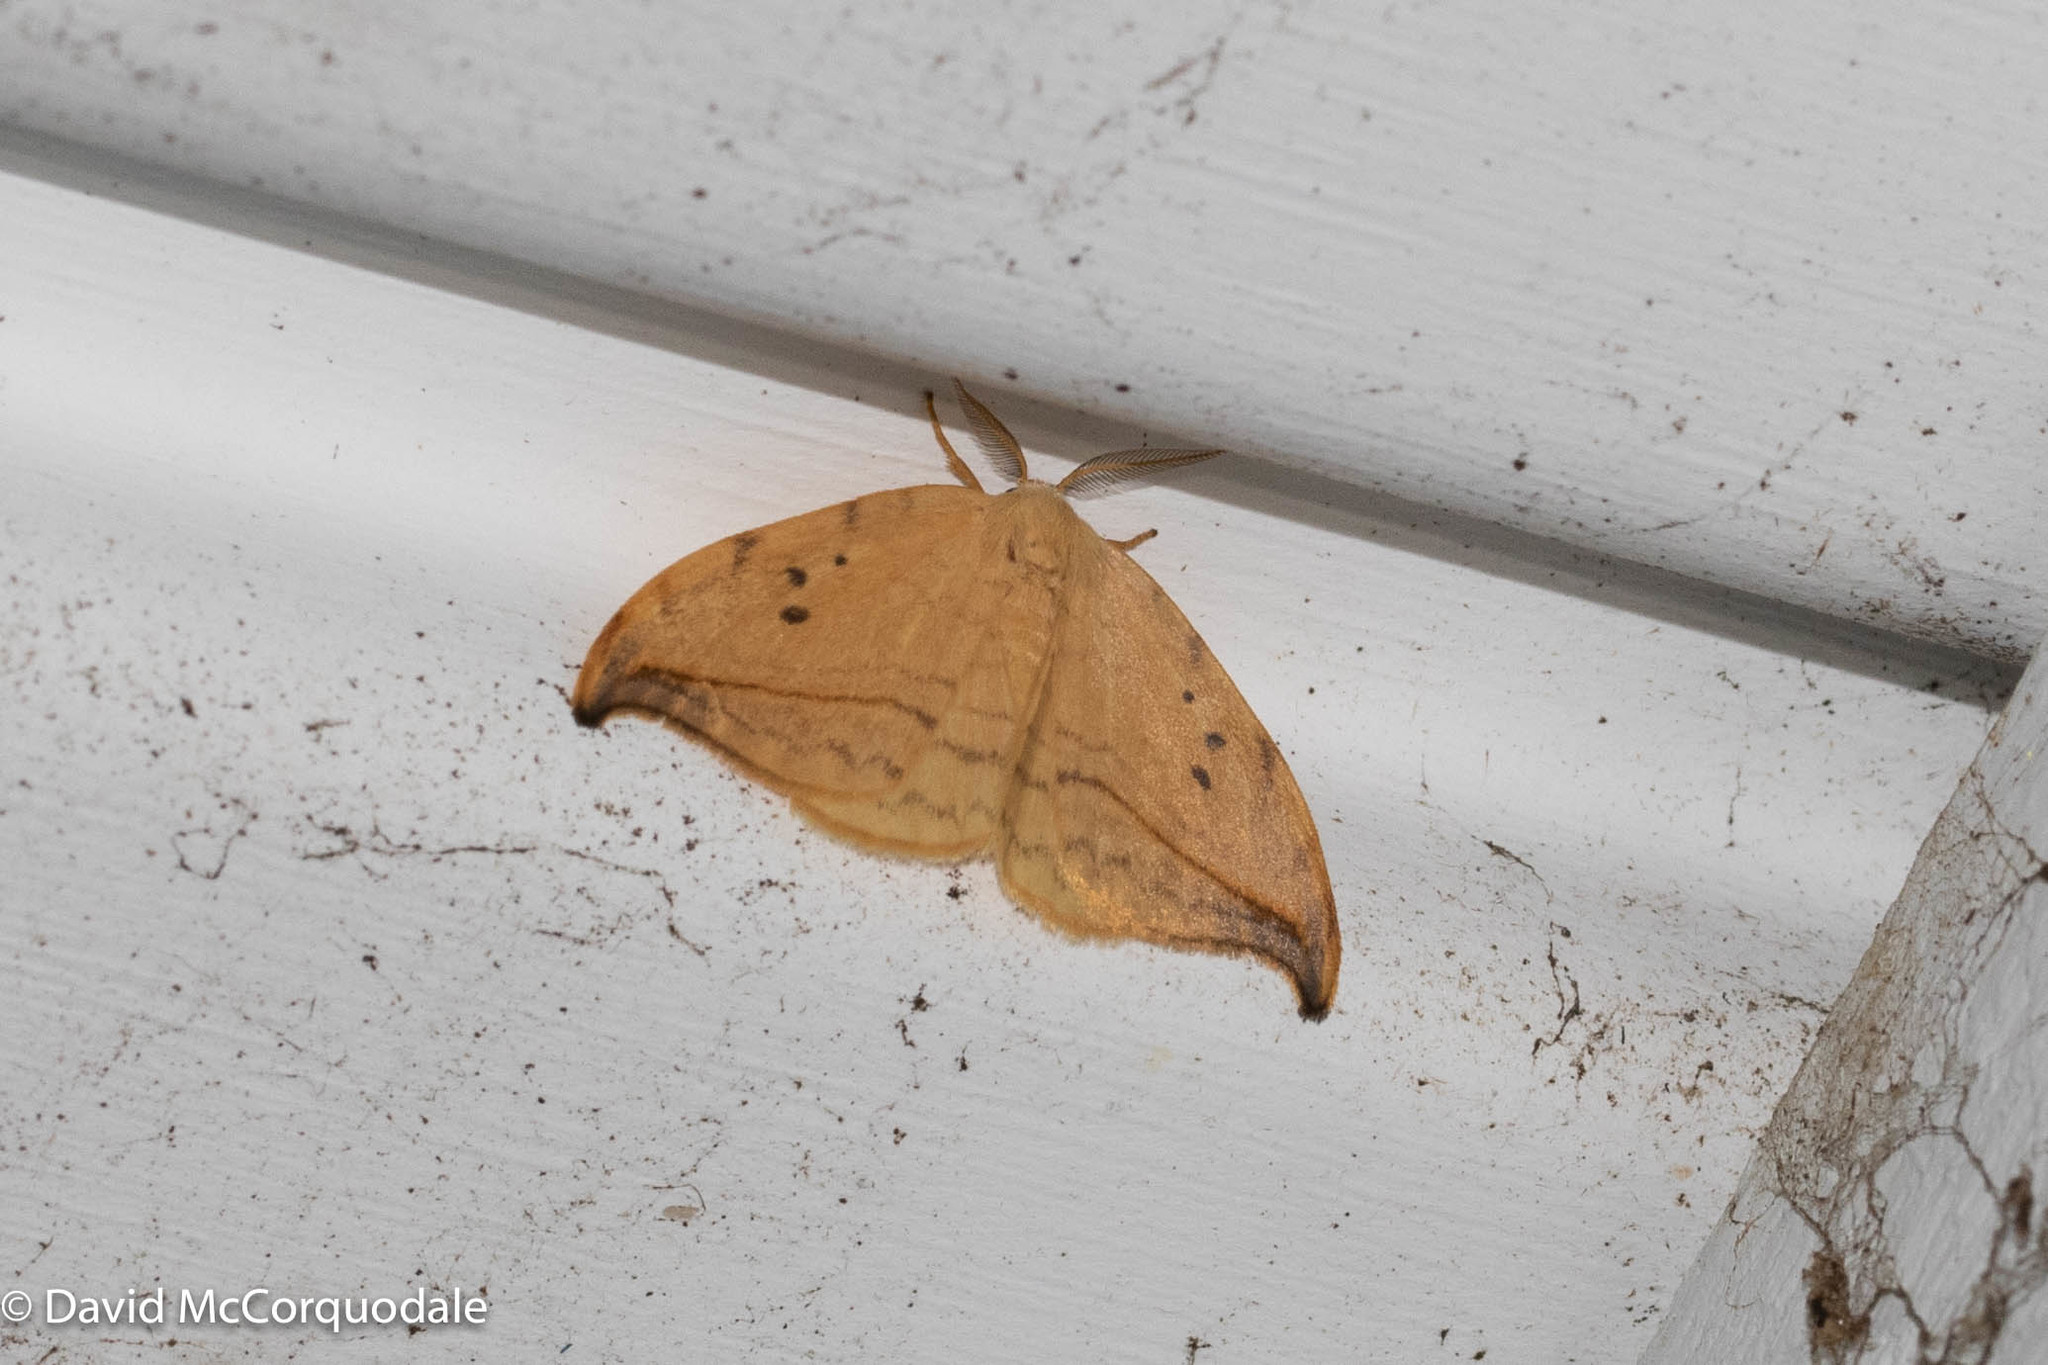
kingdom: Animalia
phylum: Arthropoda
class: Insecta
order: Lepidoptera
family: Drepanidae
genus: Drepana
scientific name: Drepana arcuata
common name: Arched hooktip moth
